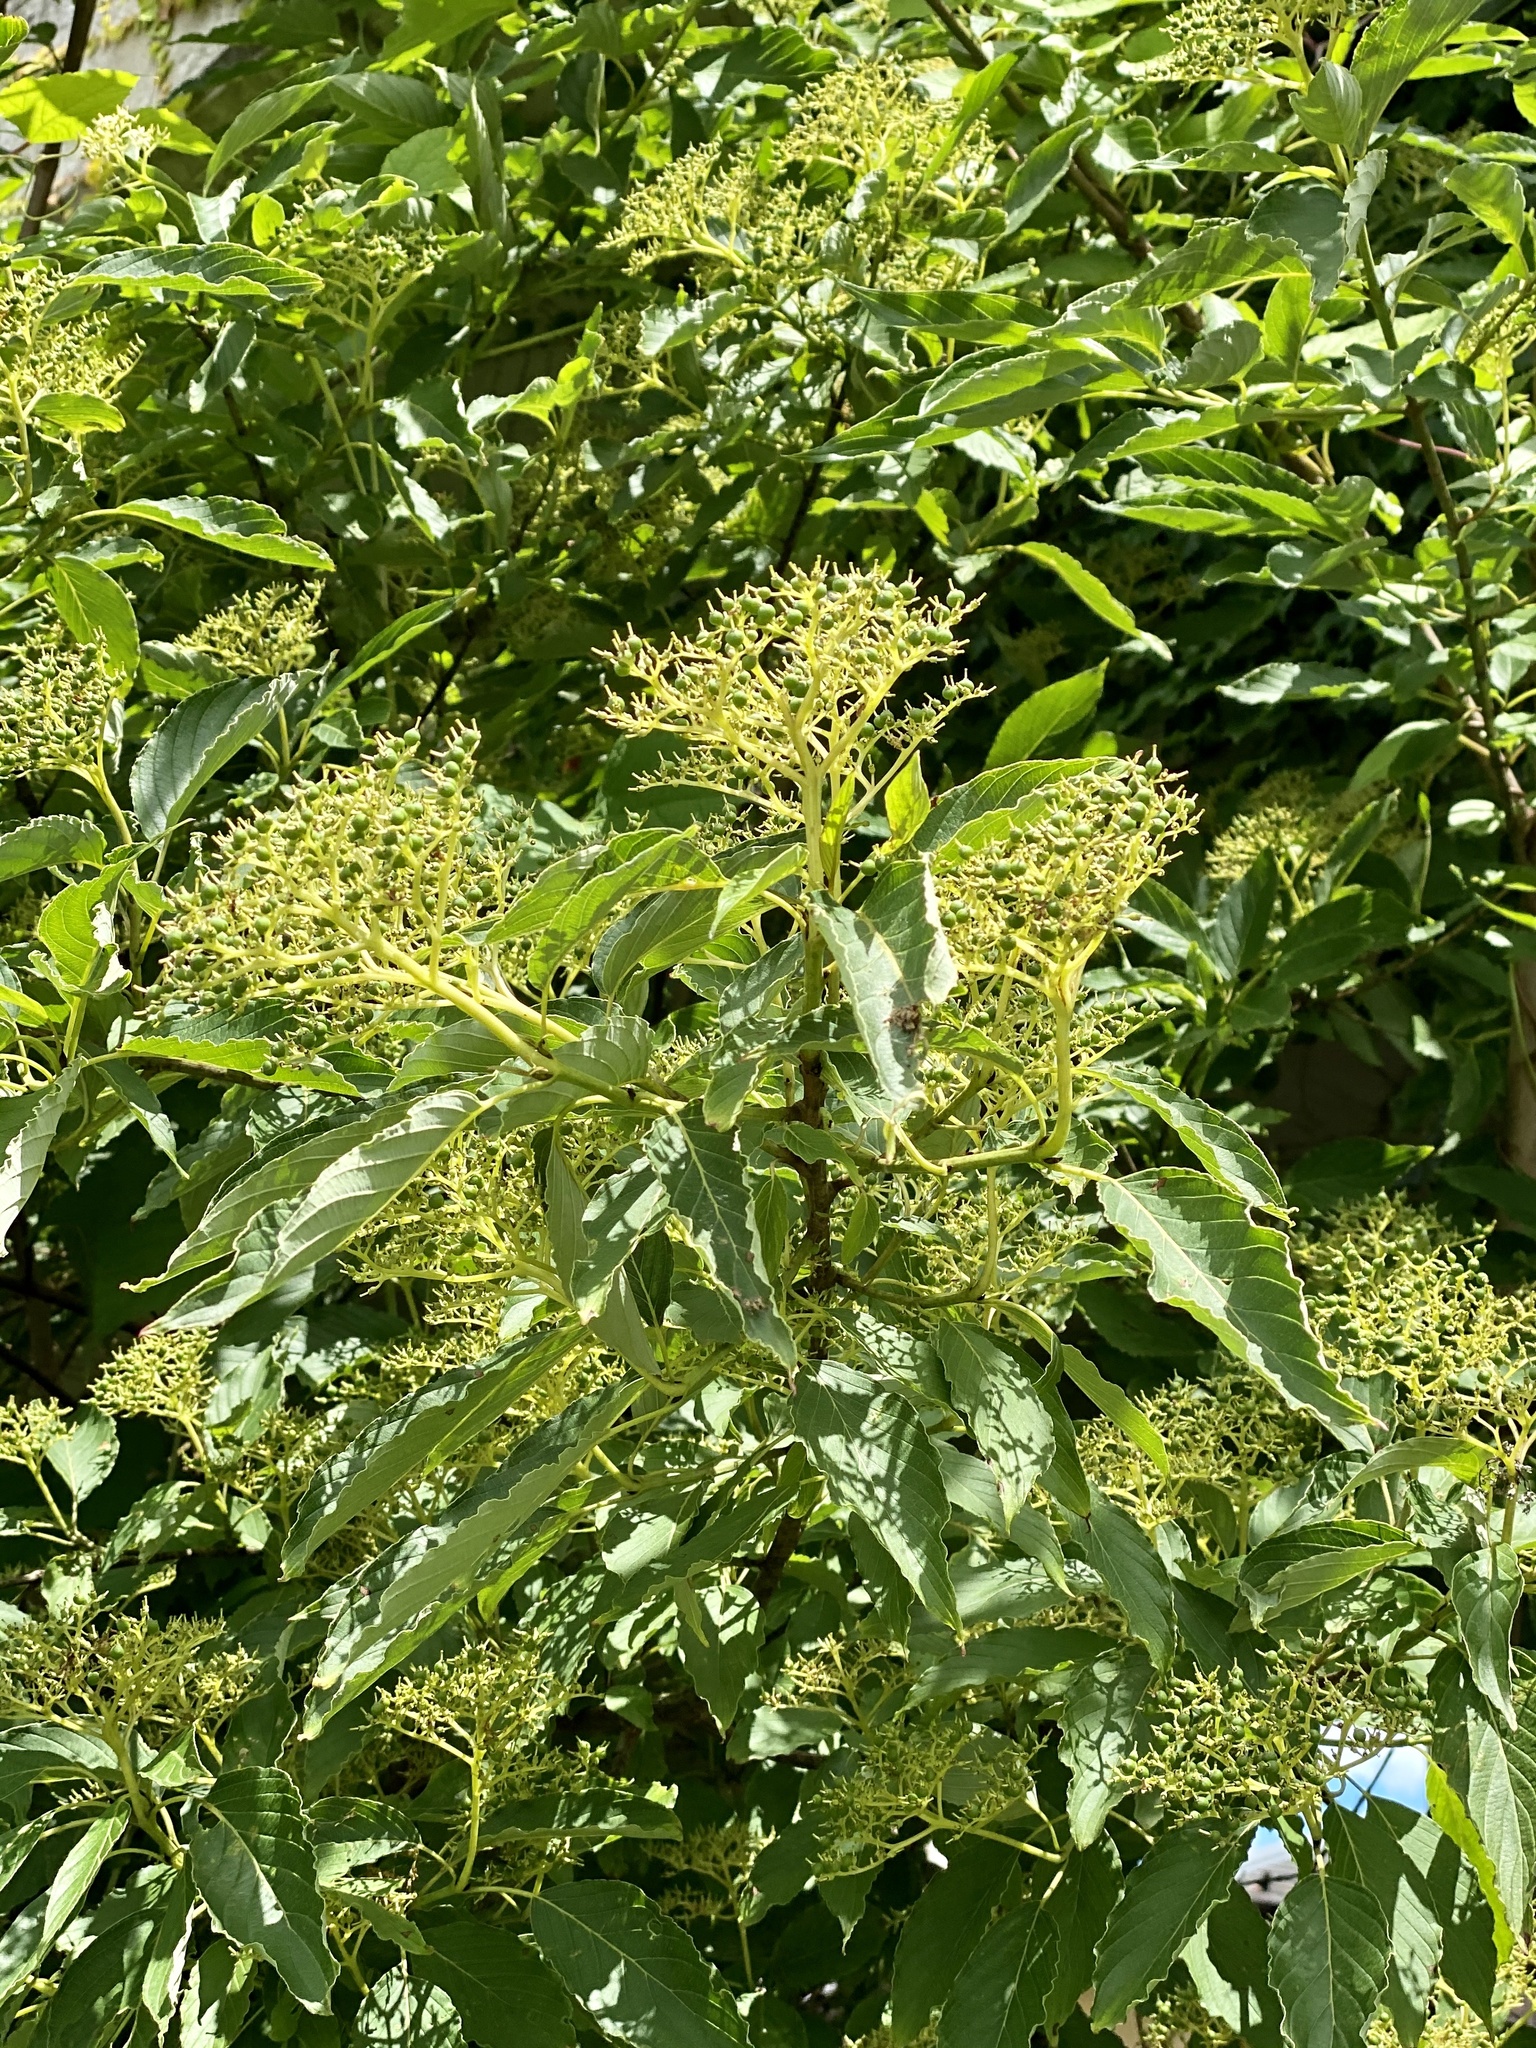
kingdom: Plantae
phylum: Tracheophyta
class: Magnoliopsida
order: Cornales
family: Cornaceae
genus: Cornus
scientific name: Cornus macrophylla
